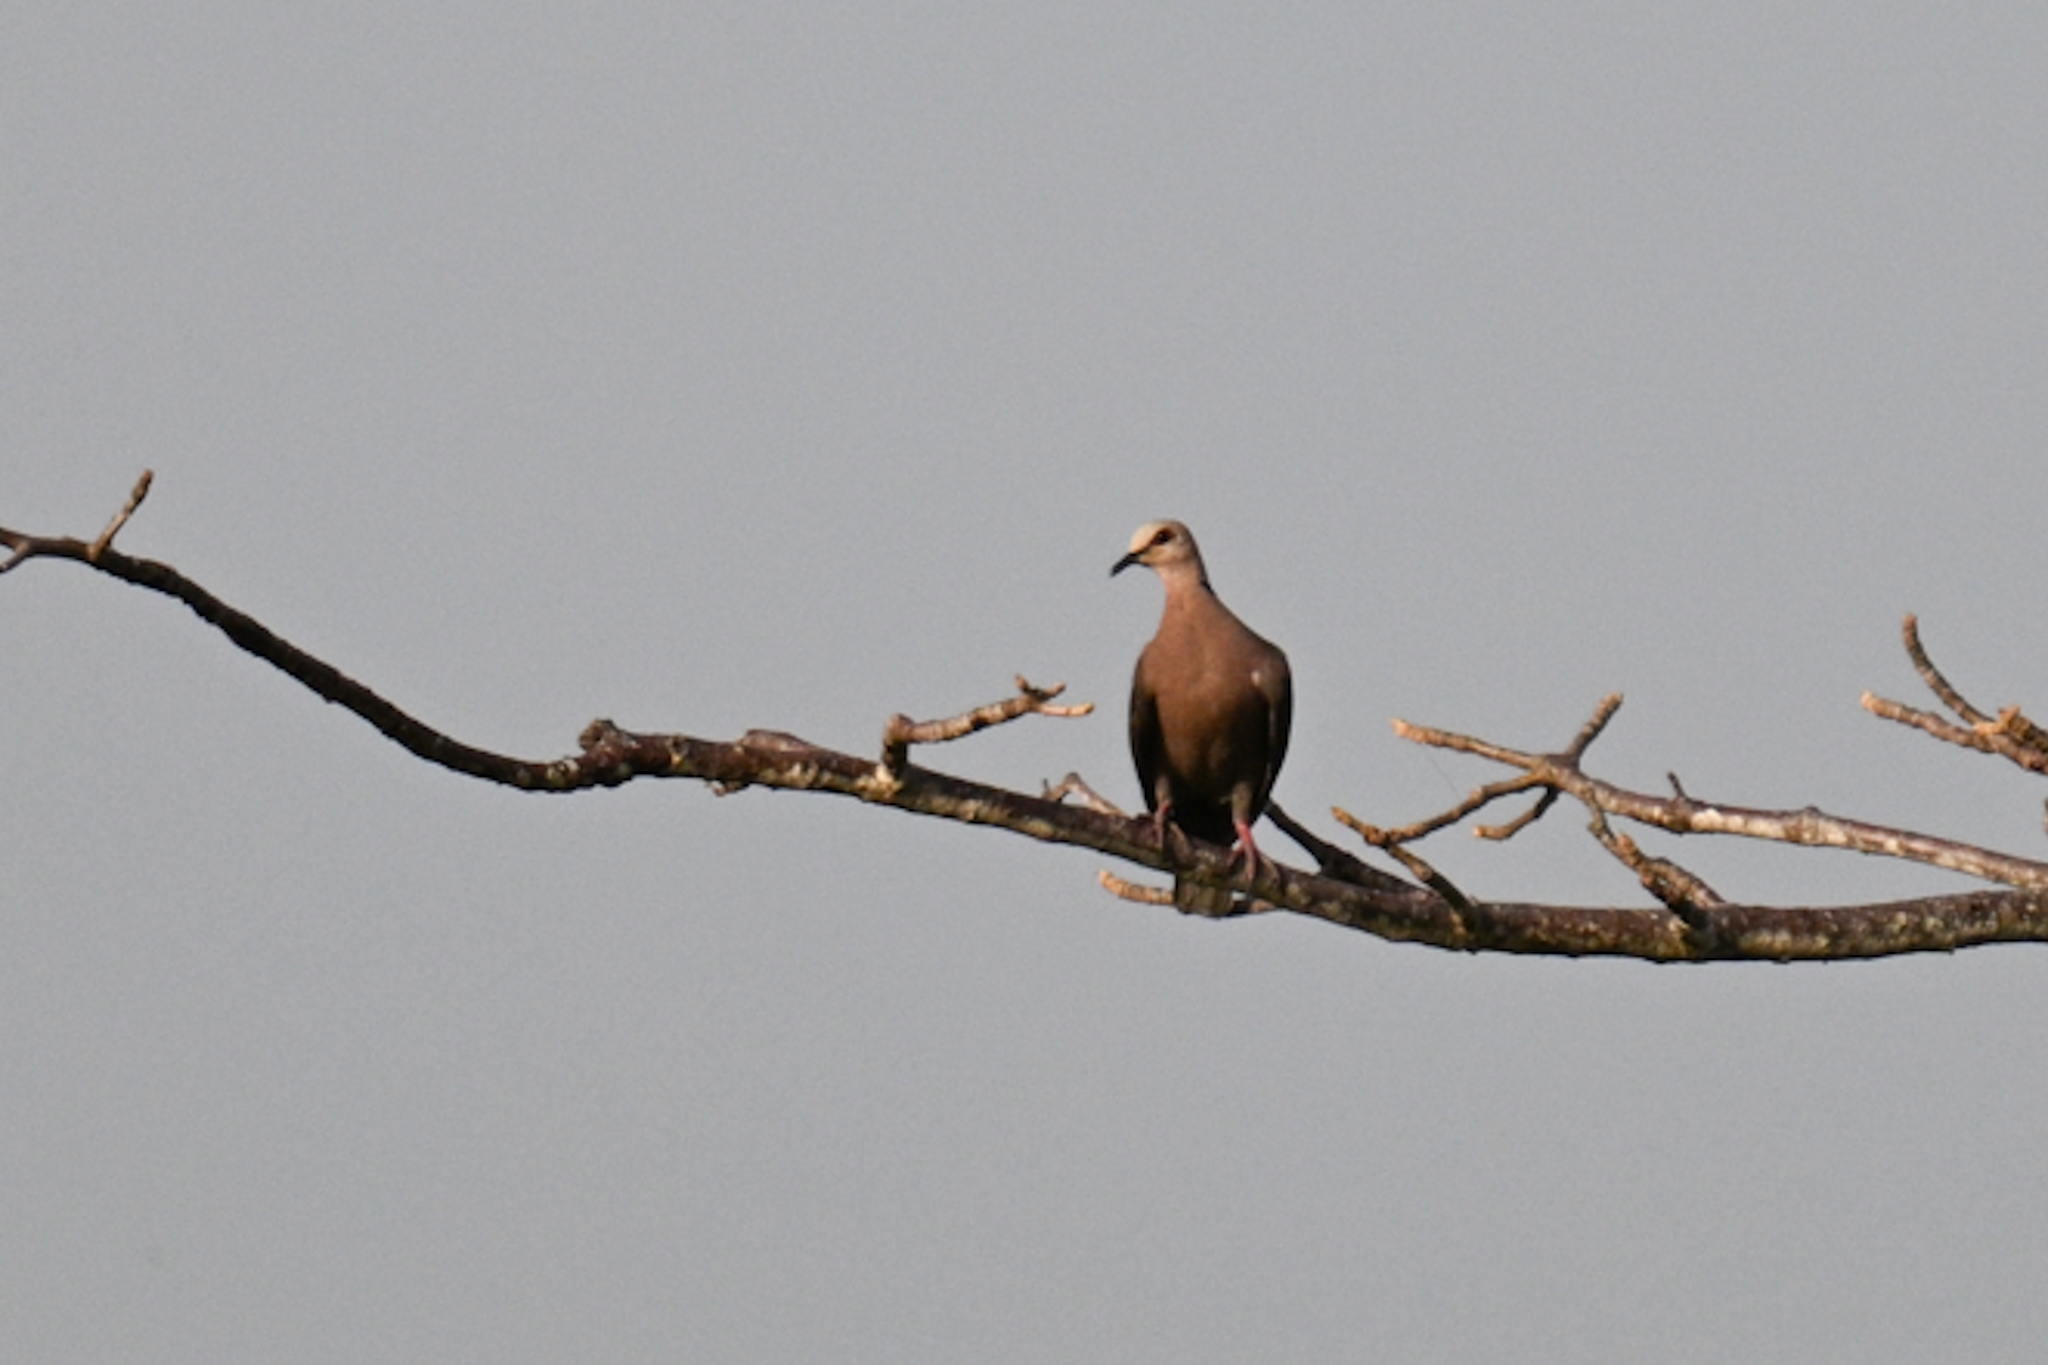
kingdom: Animalia
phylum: Chordata
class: Aves
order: Columbiformes
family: Columbidae
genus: Streptopelia
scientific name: Streptopelia semitorquata
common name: Red-eyed dove
